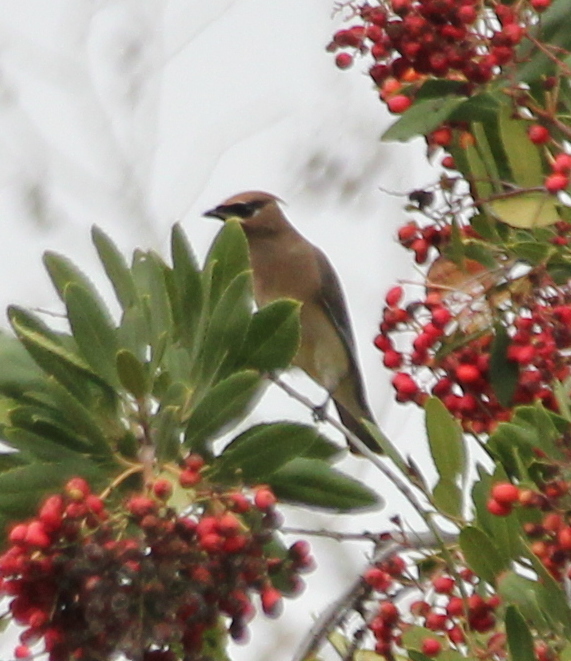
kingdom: Animalia
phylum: Chordata
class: Aves
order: Passeriformes
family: Bombycillidae
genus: Bombycilla
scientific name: Bombycilla cedrorum
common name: Cedar waxwing
